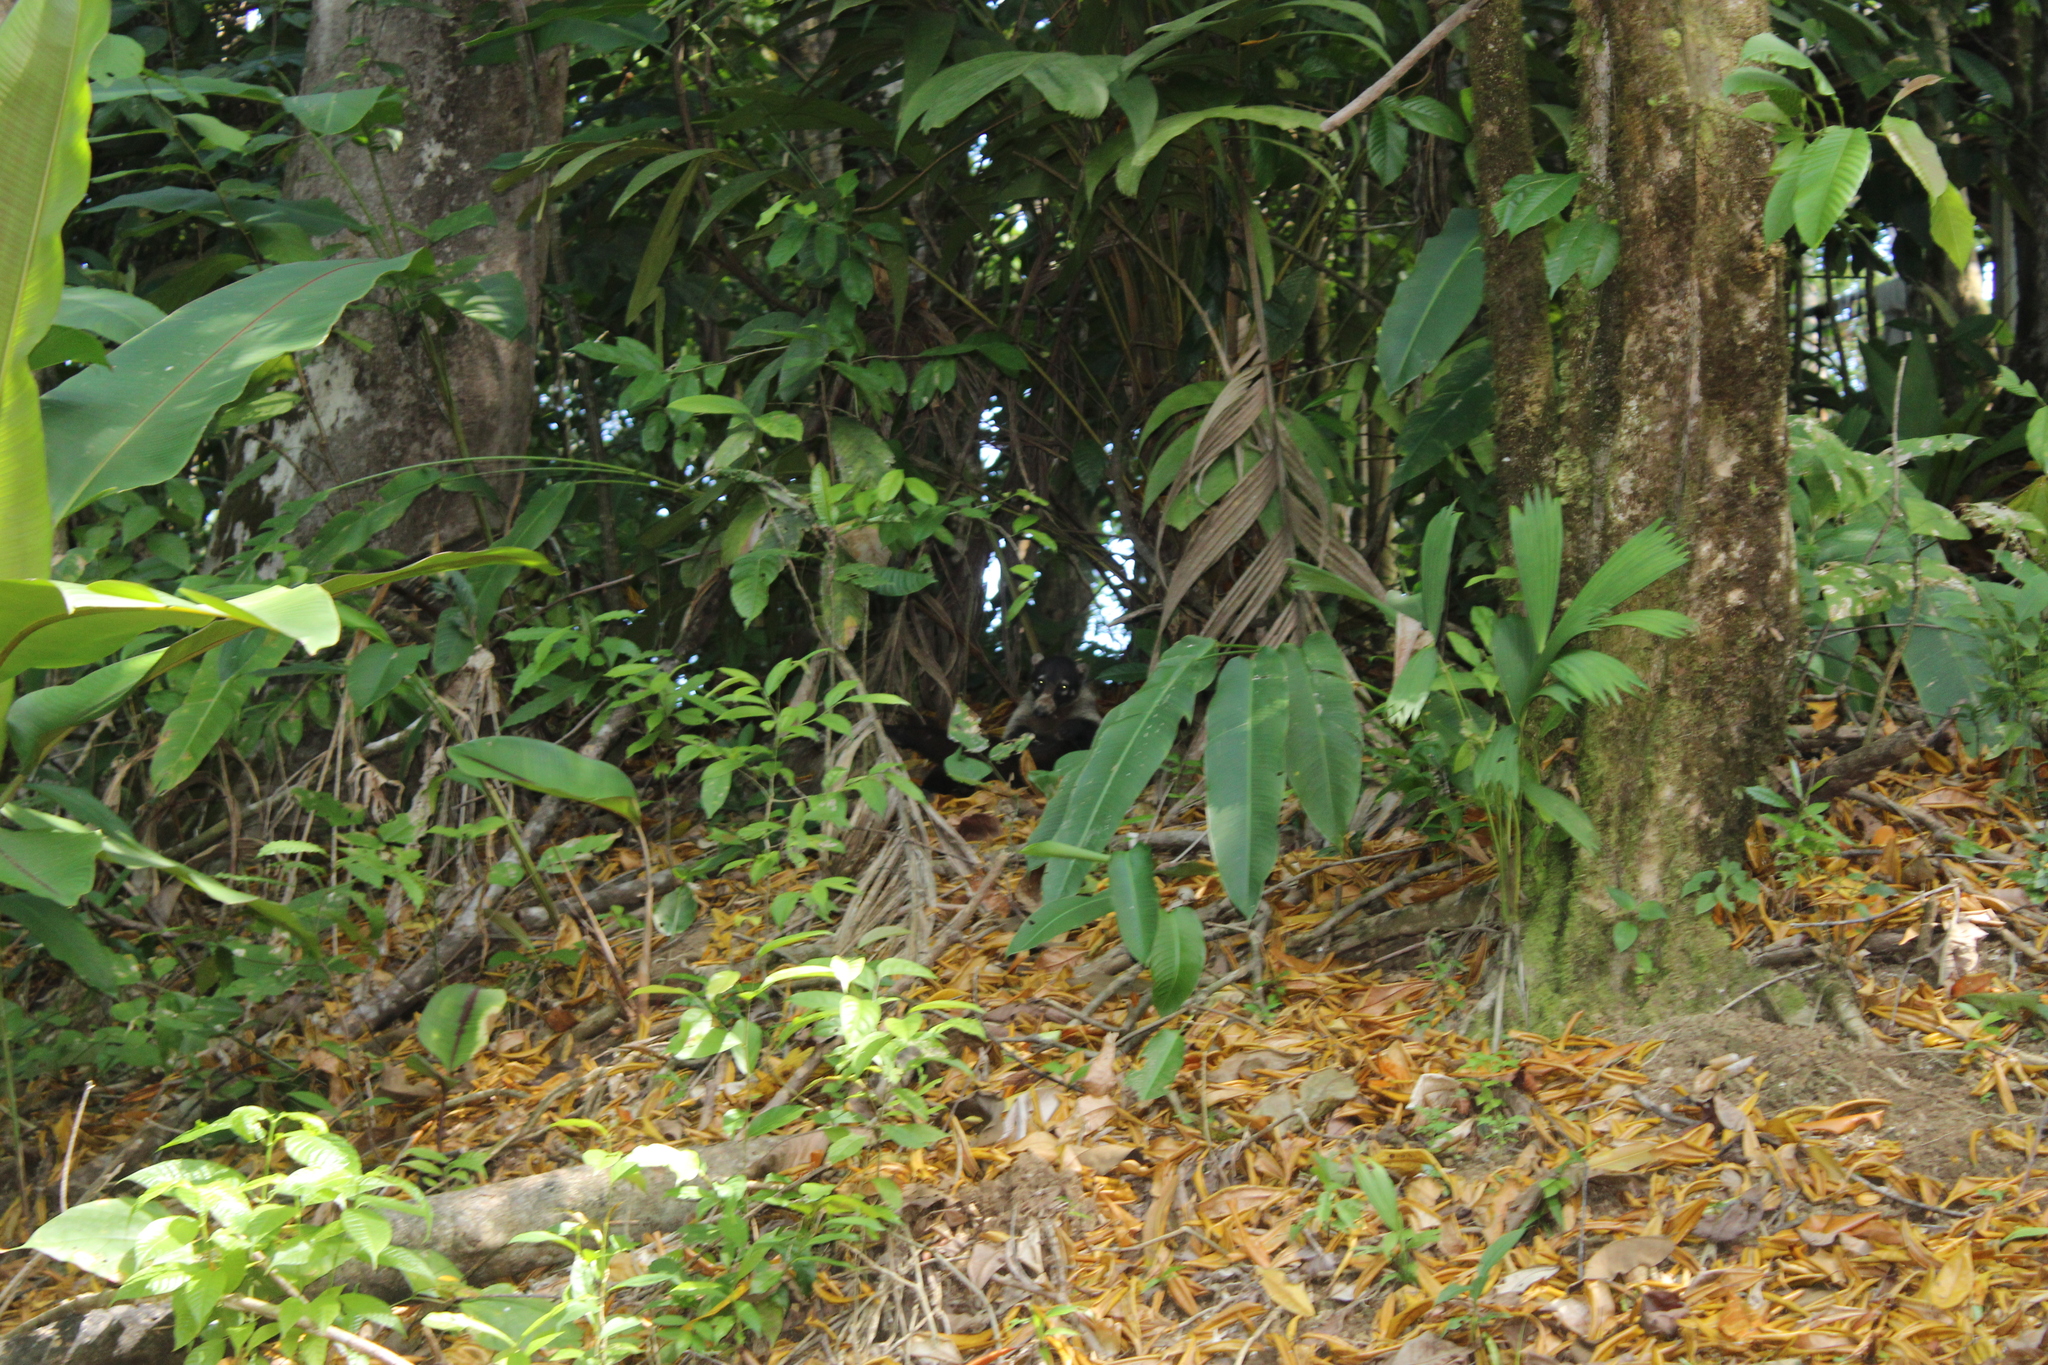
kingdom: Animalia
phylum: Chordata
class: Mammalia
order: Carnivora
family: Procyonidae
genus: Nasua
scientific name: Nasua narica
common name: White-nosed coati
